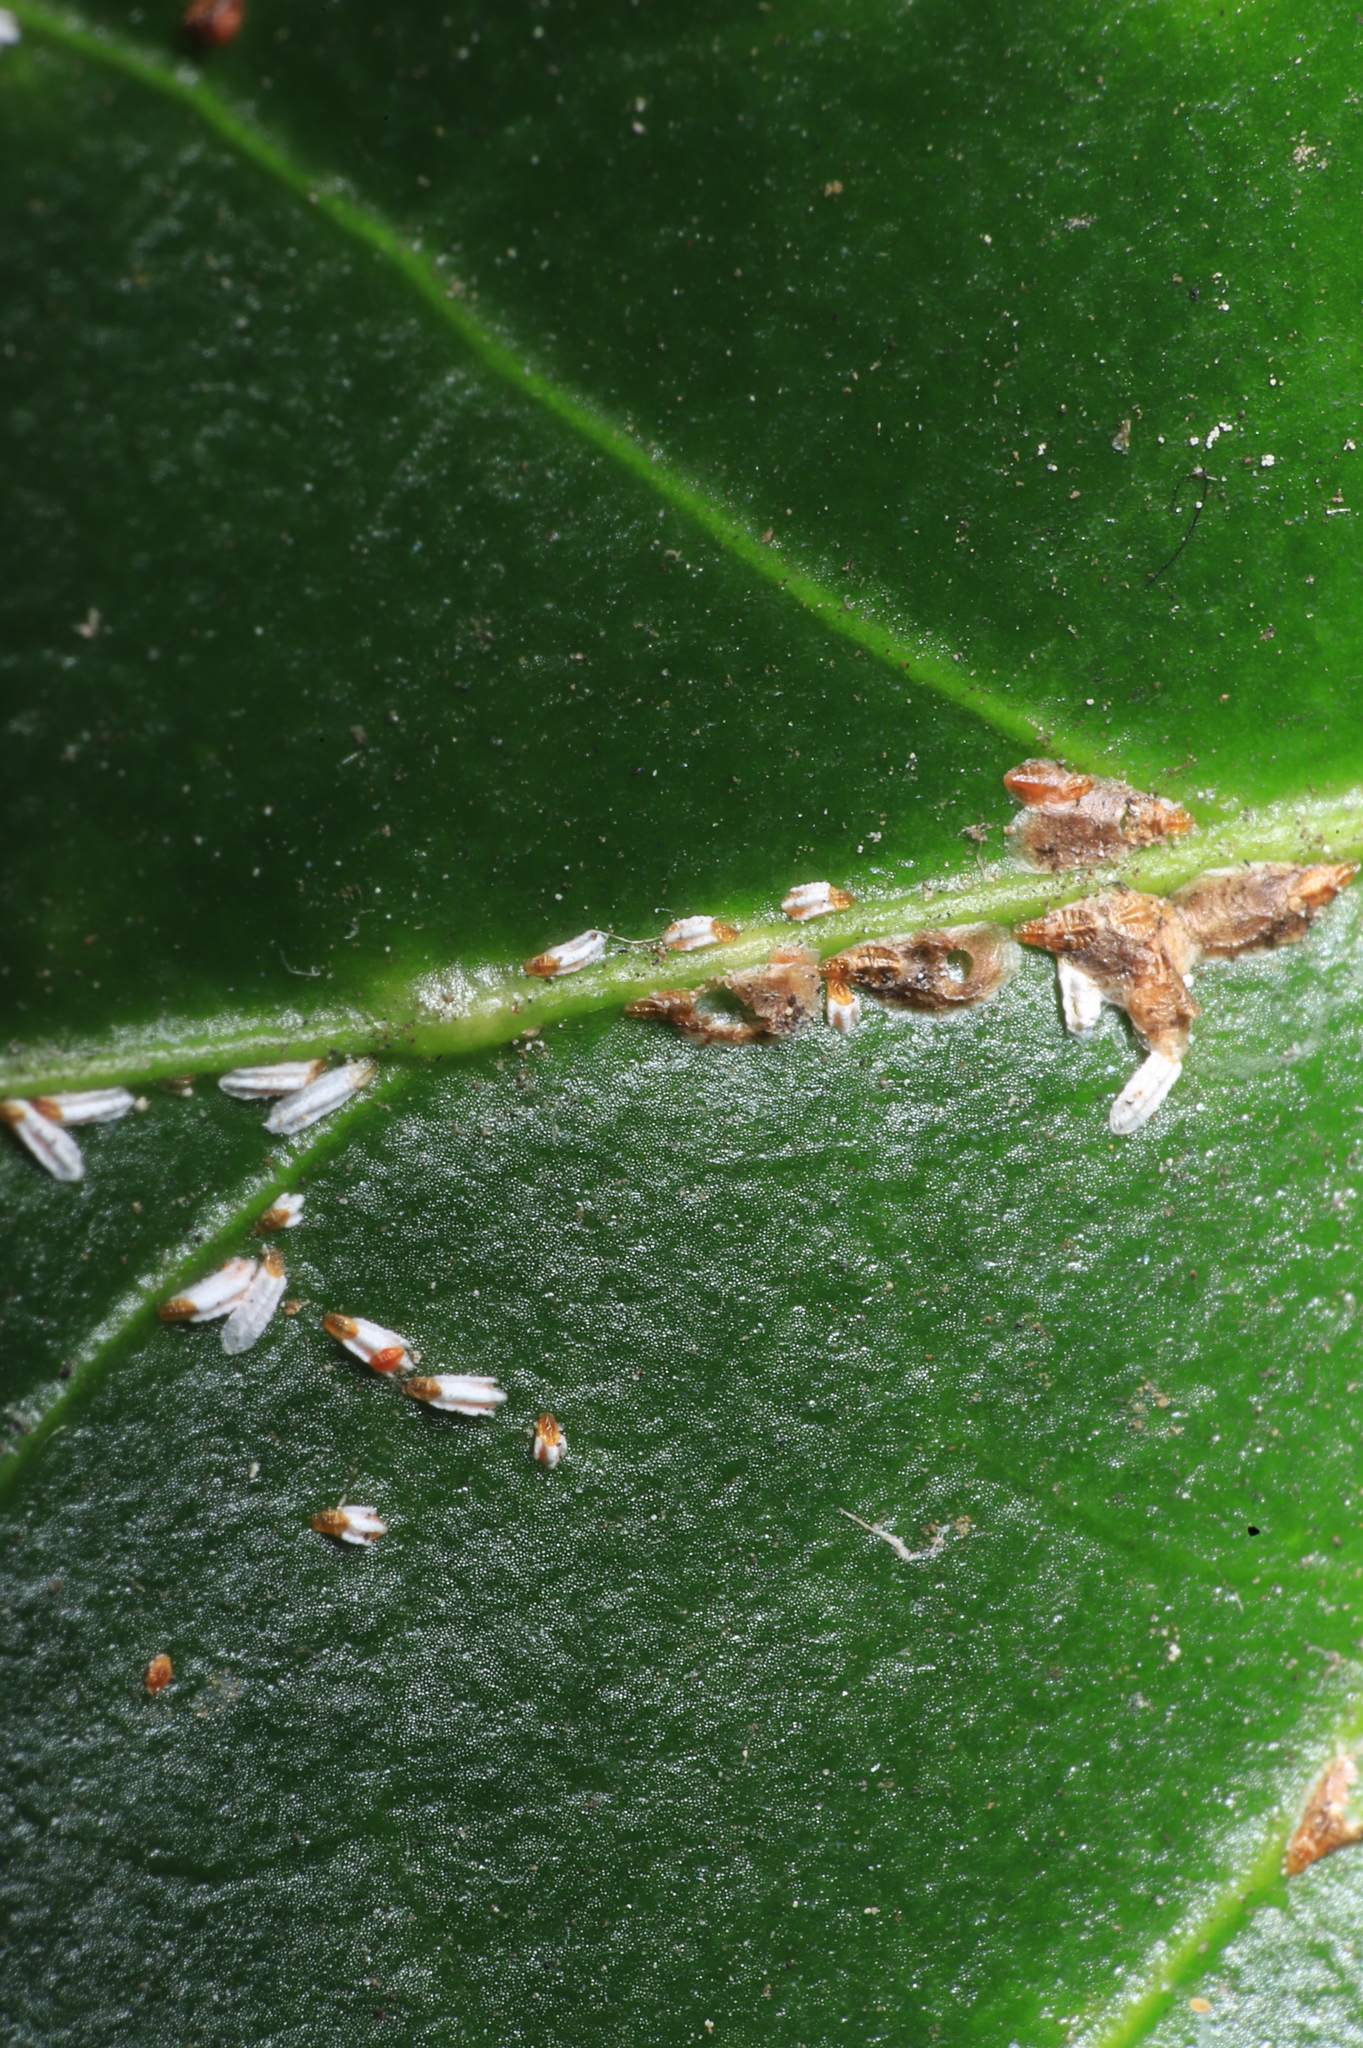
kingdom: Animalia
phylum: Arthropoda
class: Insecta
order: Hemiptera
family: Diaspididae
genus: Unaspis
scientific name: Unaspis euonymi
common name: Euonymus scale
